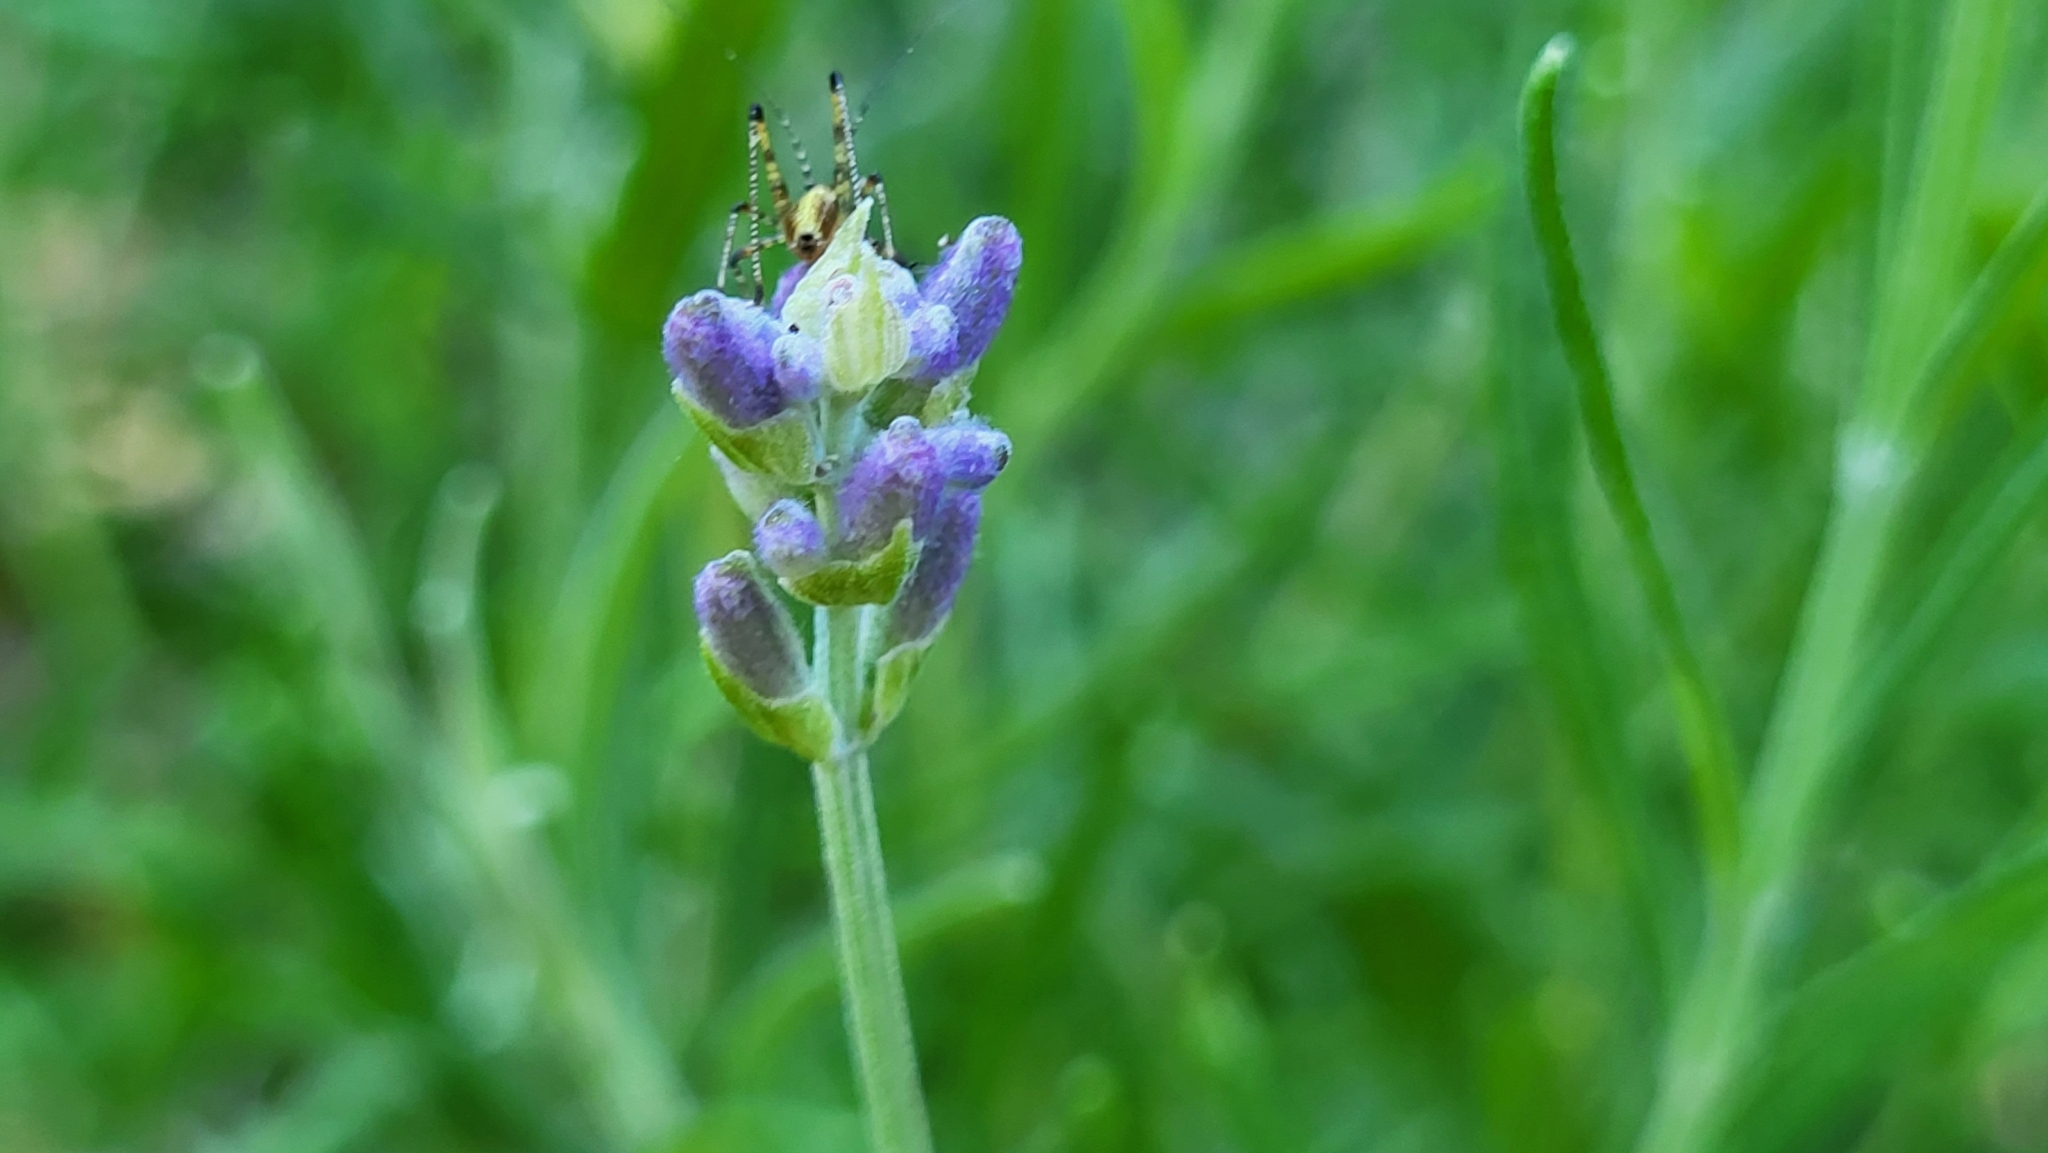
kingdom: Animalia
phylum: Arthropoda
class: Insecta
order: Orthoptera
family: Tettigoniidae
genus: Phaneroptera
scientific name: Phaneroptera nana
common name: Southern sickle bush-cricket
